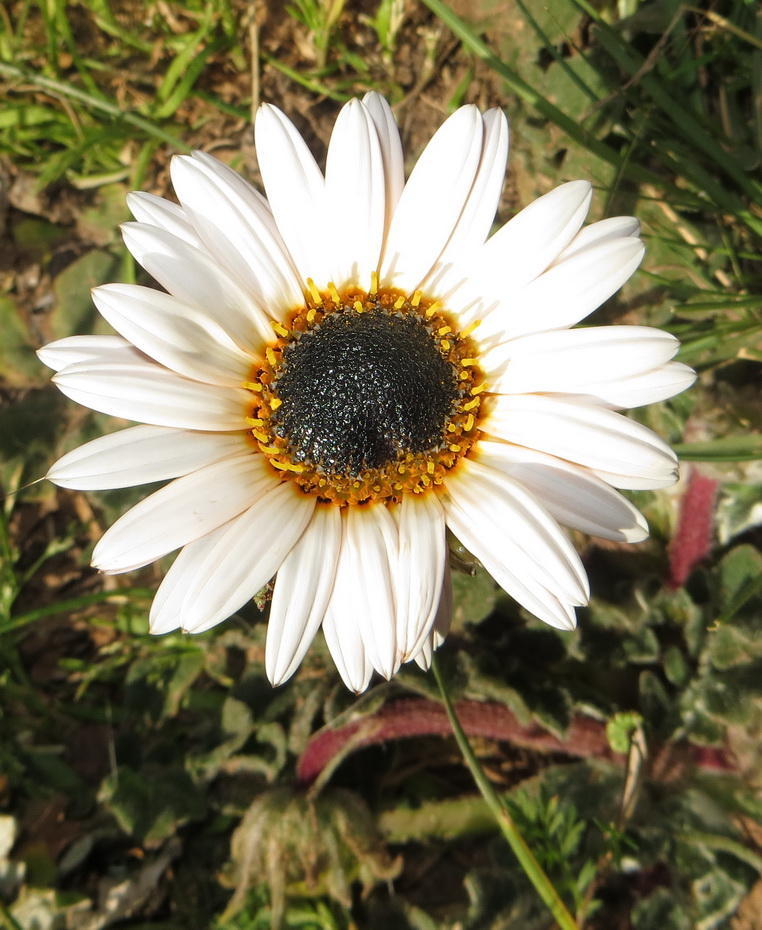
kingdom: Plantae
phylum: Tracheophyta
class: Magnoliopsida
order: Asterales
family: Asteraceae
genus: Arctotis
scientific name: Arctotis acaulis
